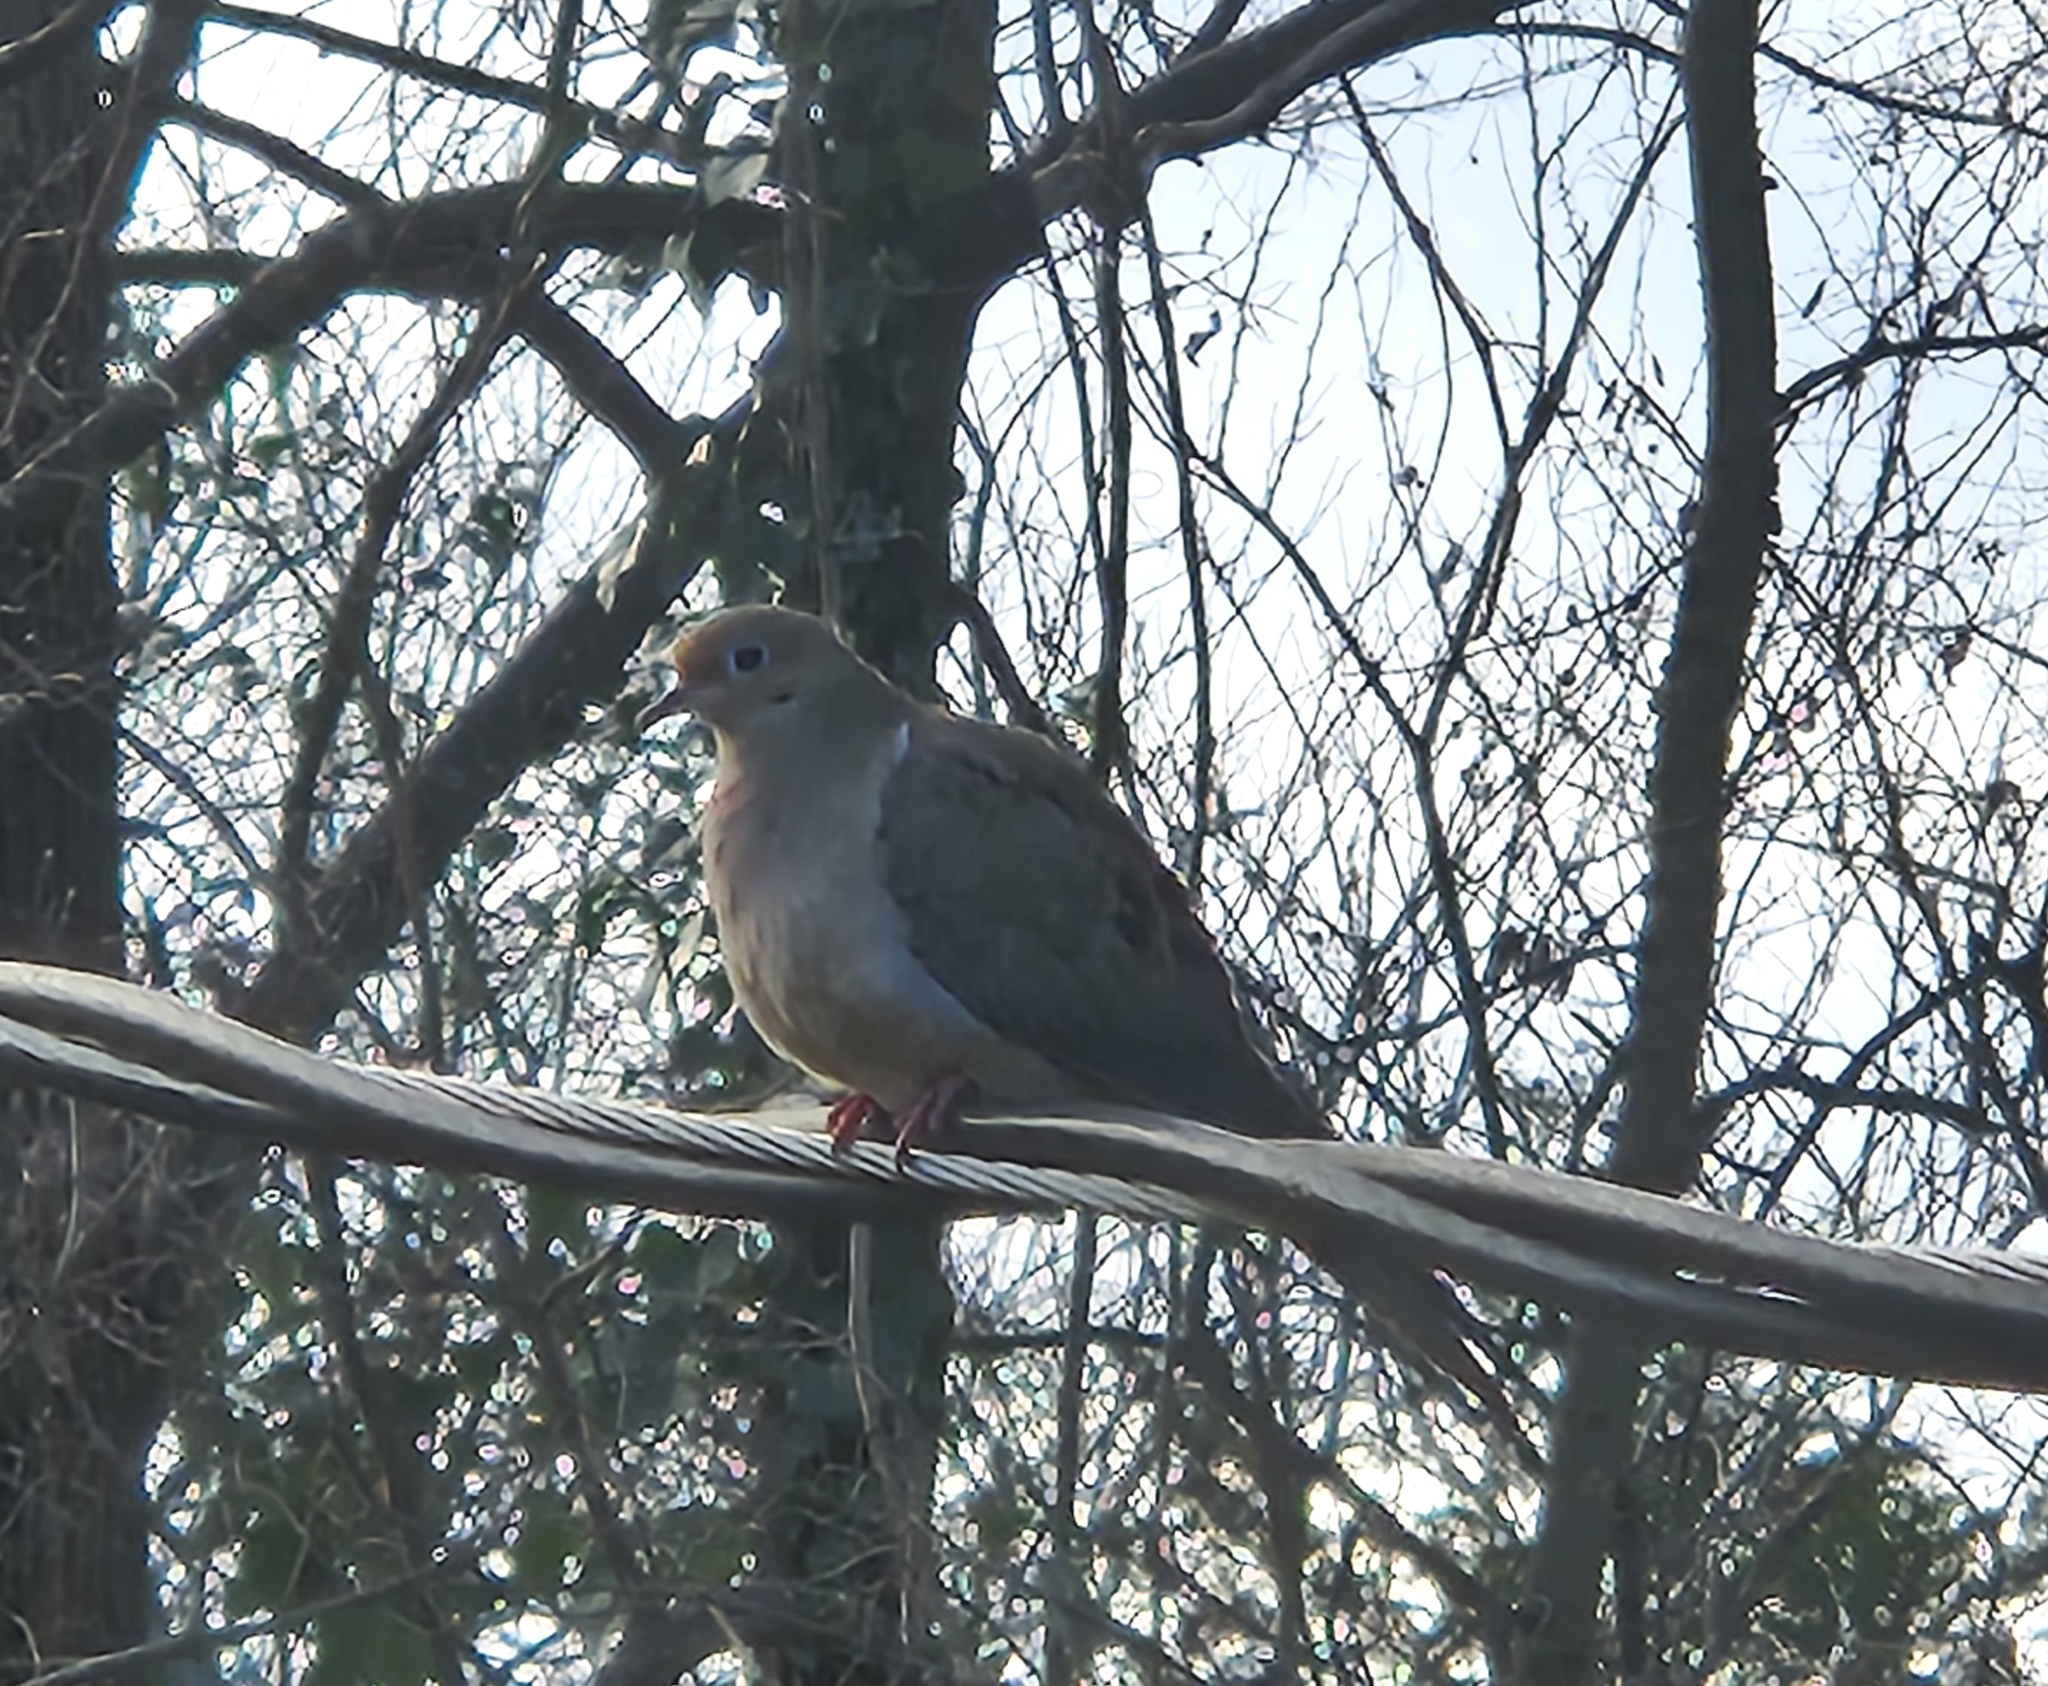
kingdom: Animalia
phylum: Chordata
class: Aves
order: Columbiformes
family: Columbidae
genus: Zenaida
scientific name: Zenaida macroura
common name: Mourning dove
